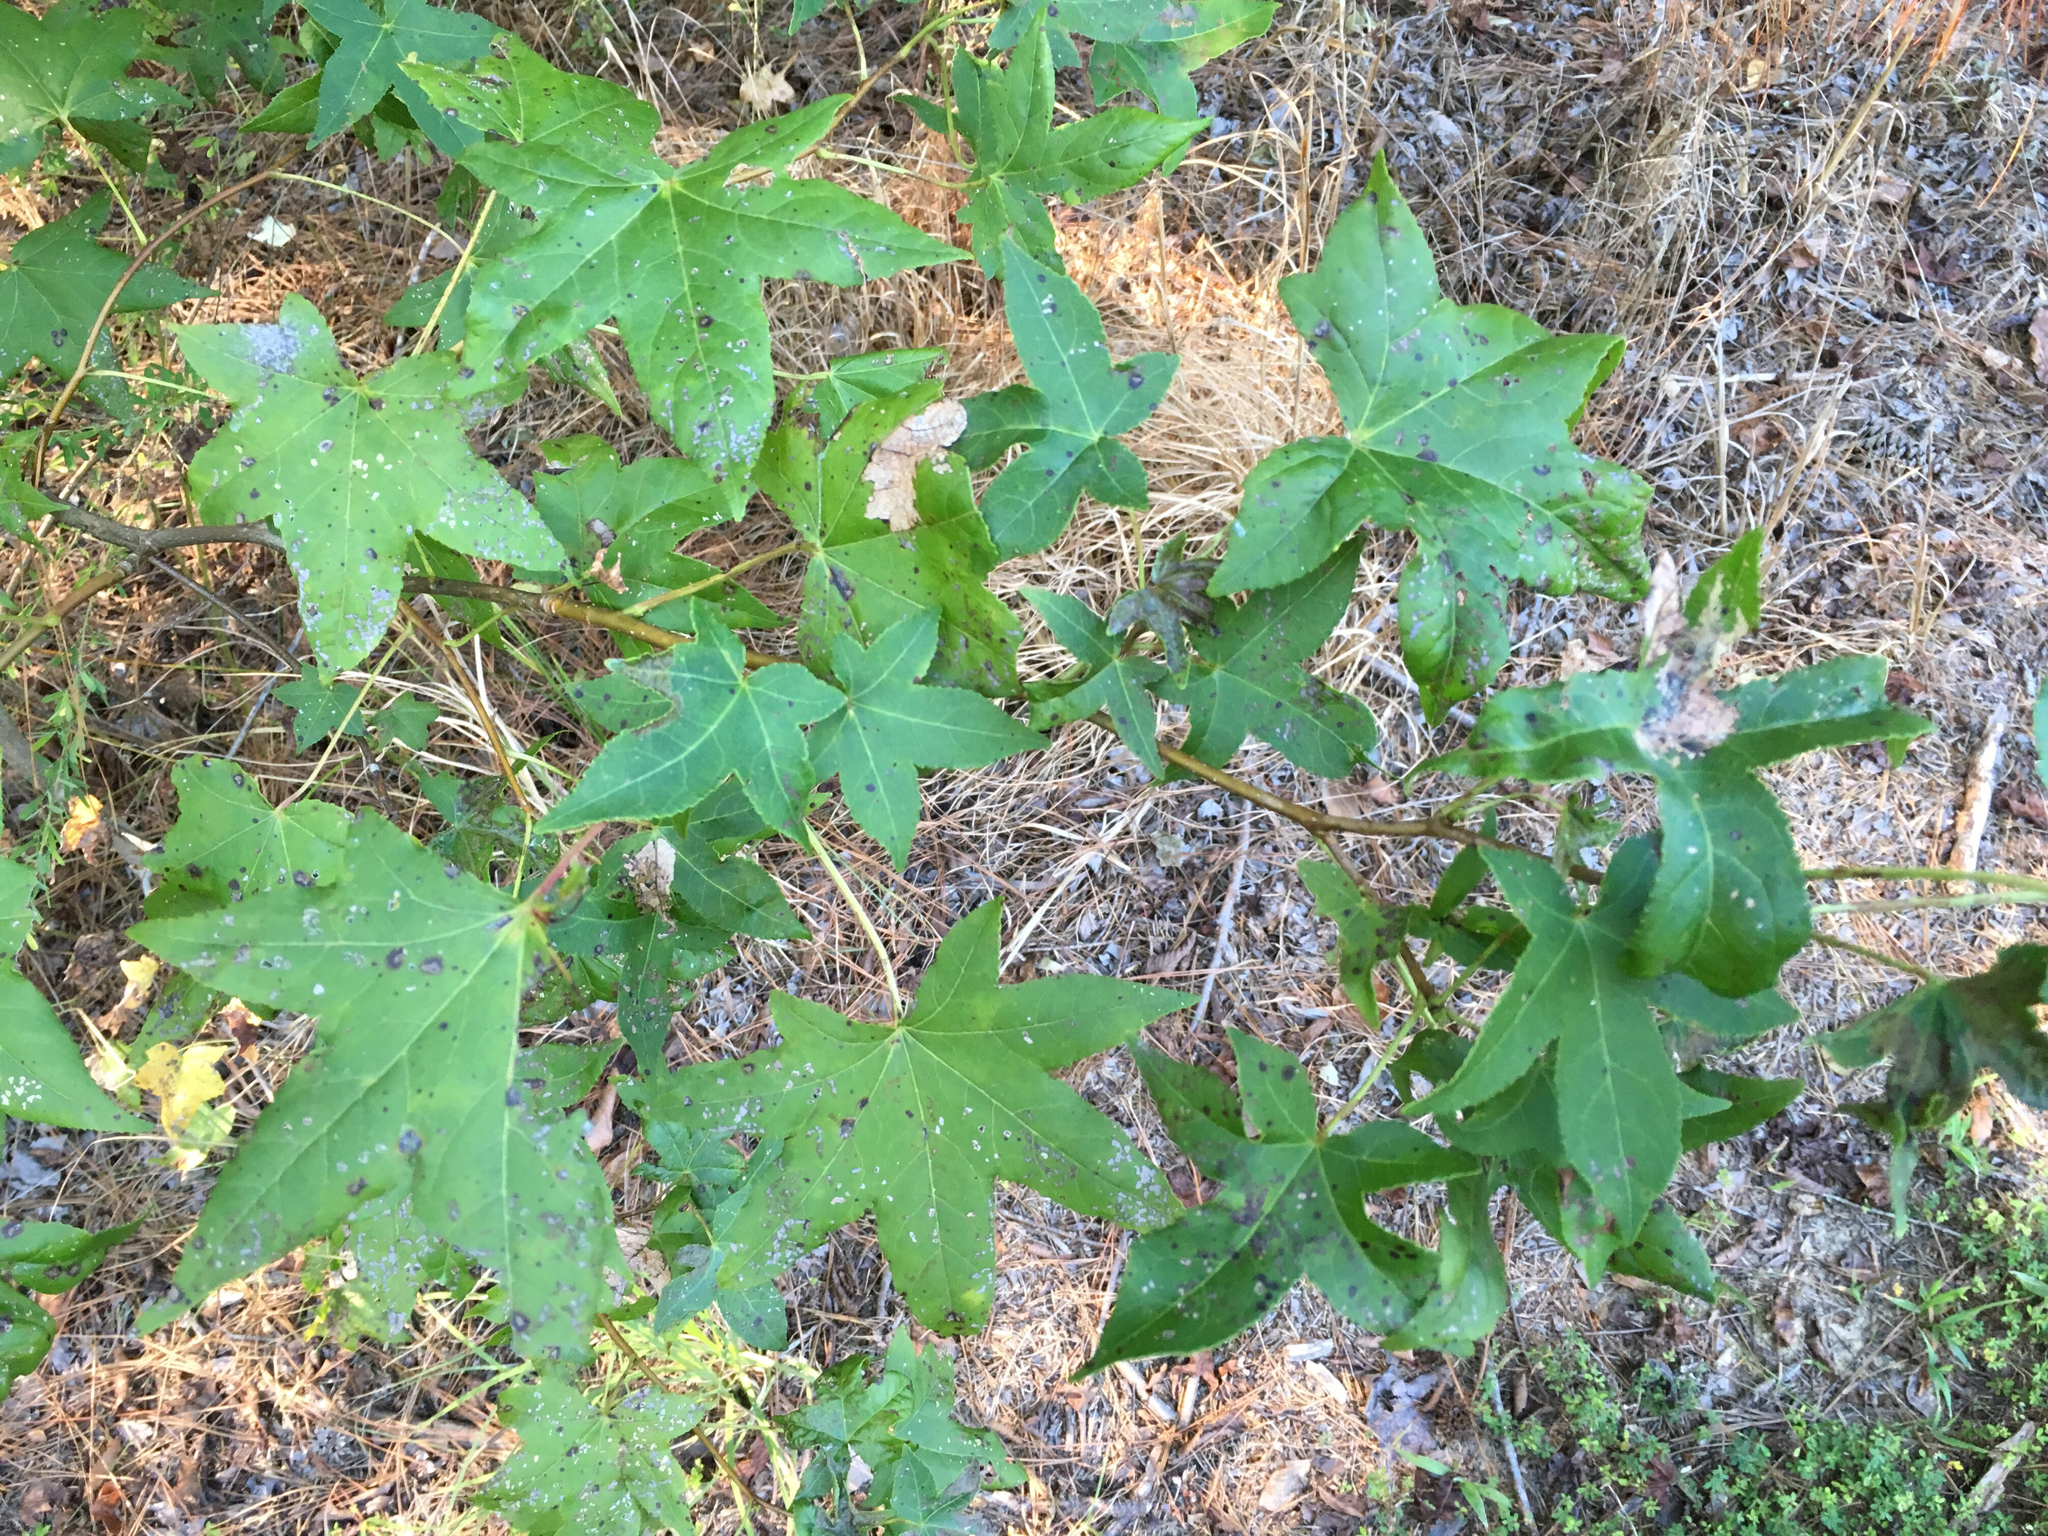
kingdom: Plantae
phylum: Tracheophyta
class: Magnoliopsida
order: Saxifragales
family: Altingiaceae
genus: Liquidambar
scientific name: Liquidambar styraciflua
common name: Sweet gum
